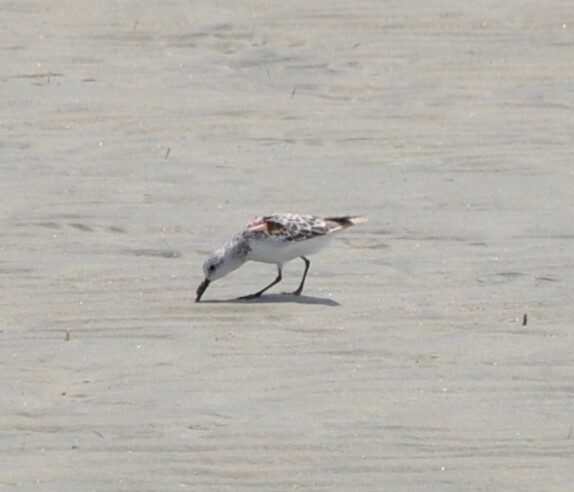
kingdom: Animalia
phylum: Chordata
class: Aves
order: Charadriiformes
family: Scolopacidae
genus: Calidris
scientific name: Calidris alba
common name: Sanderling
